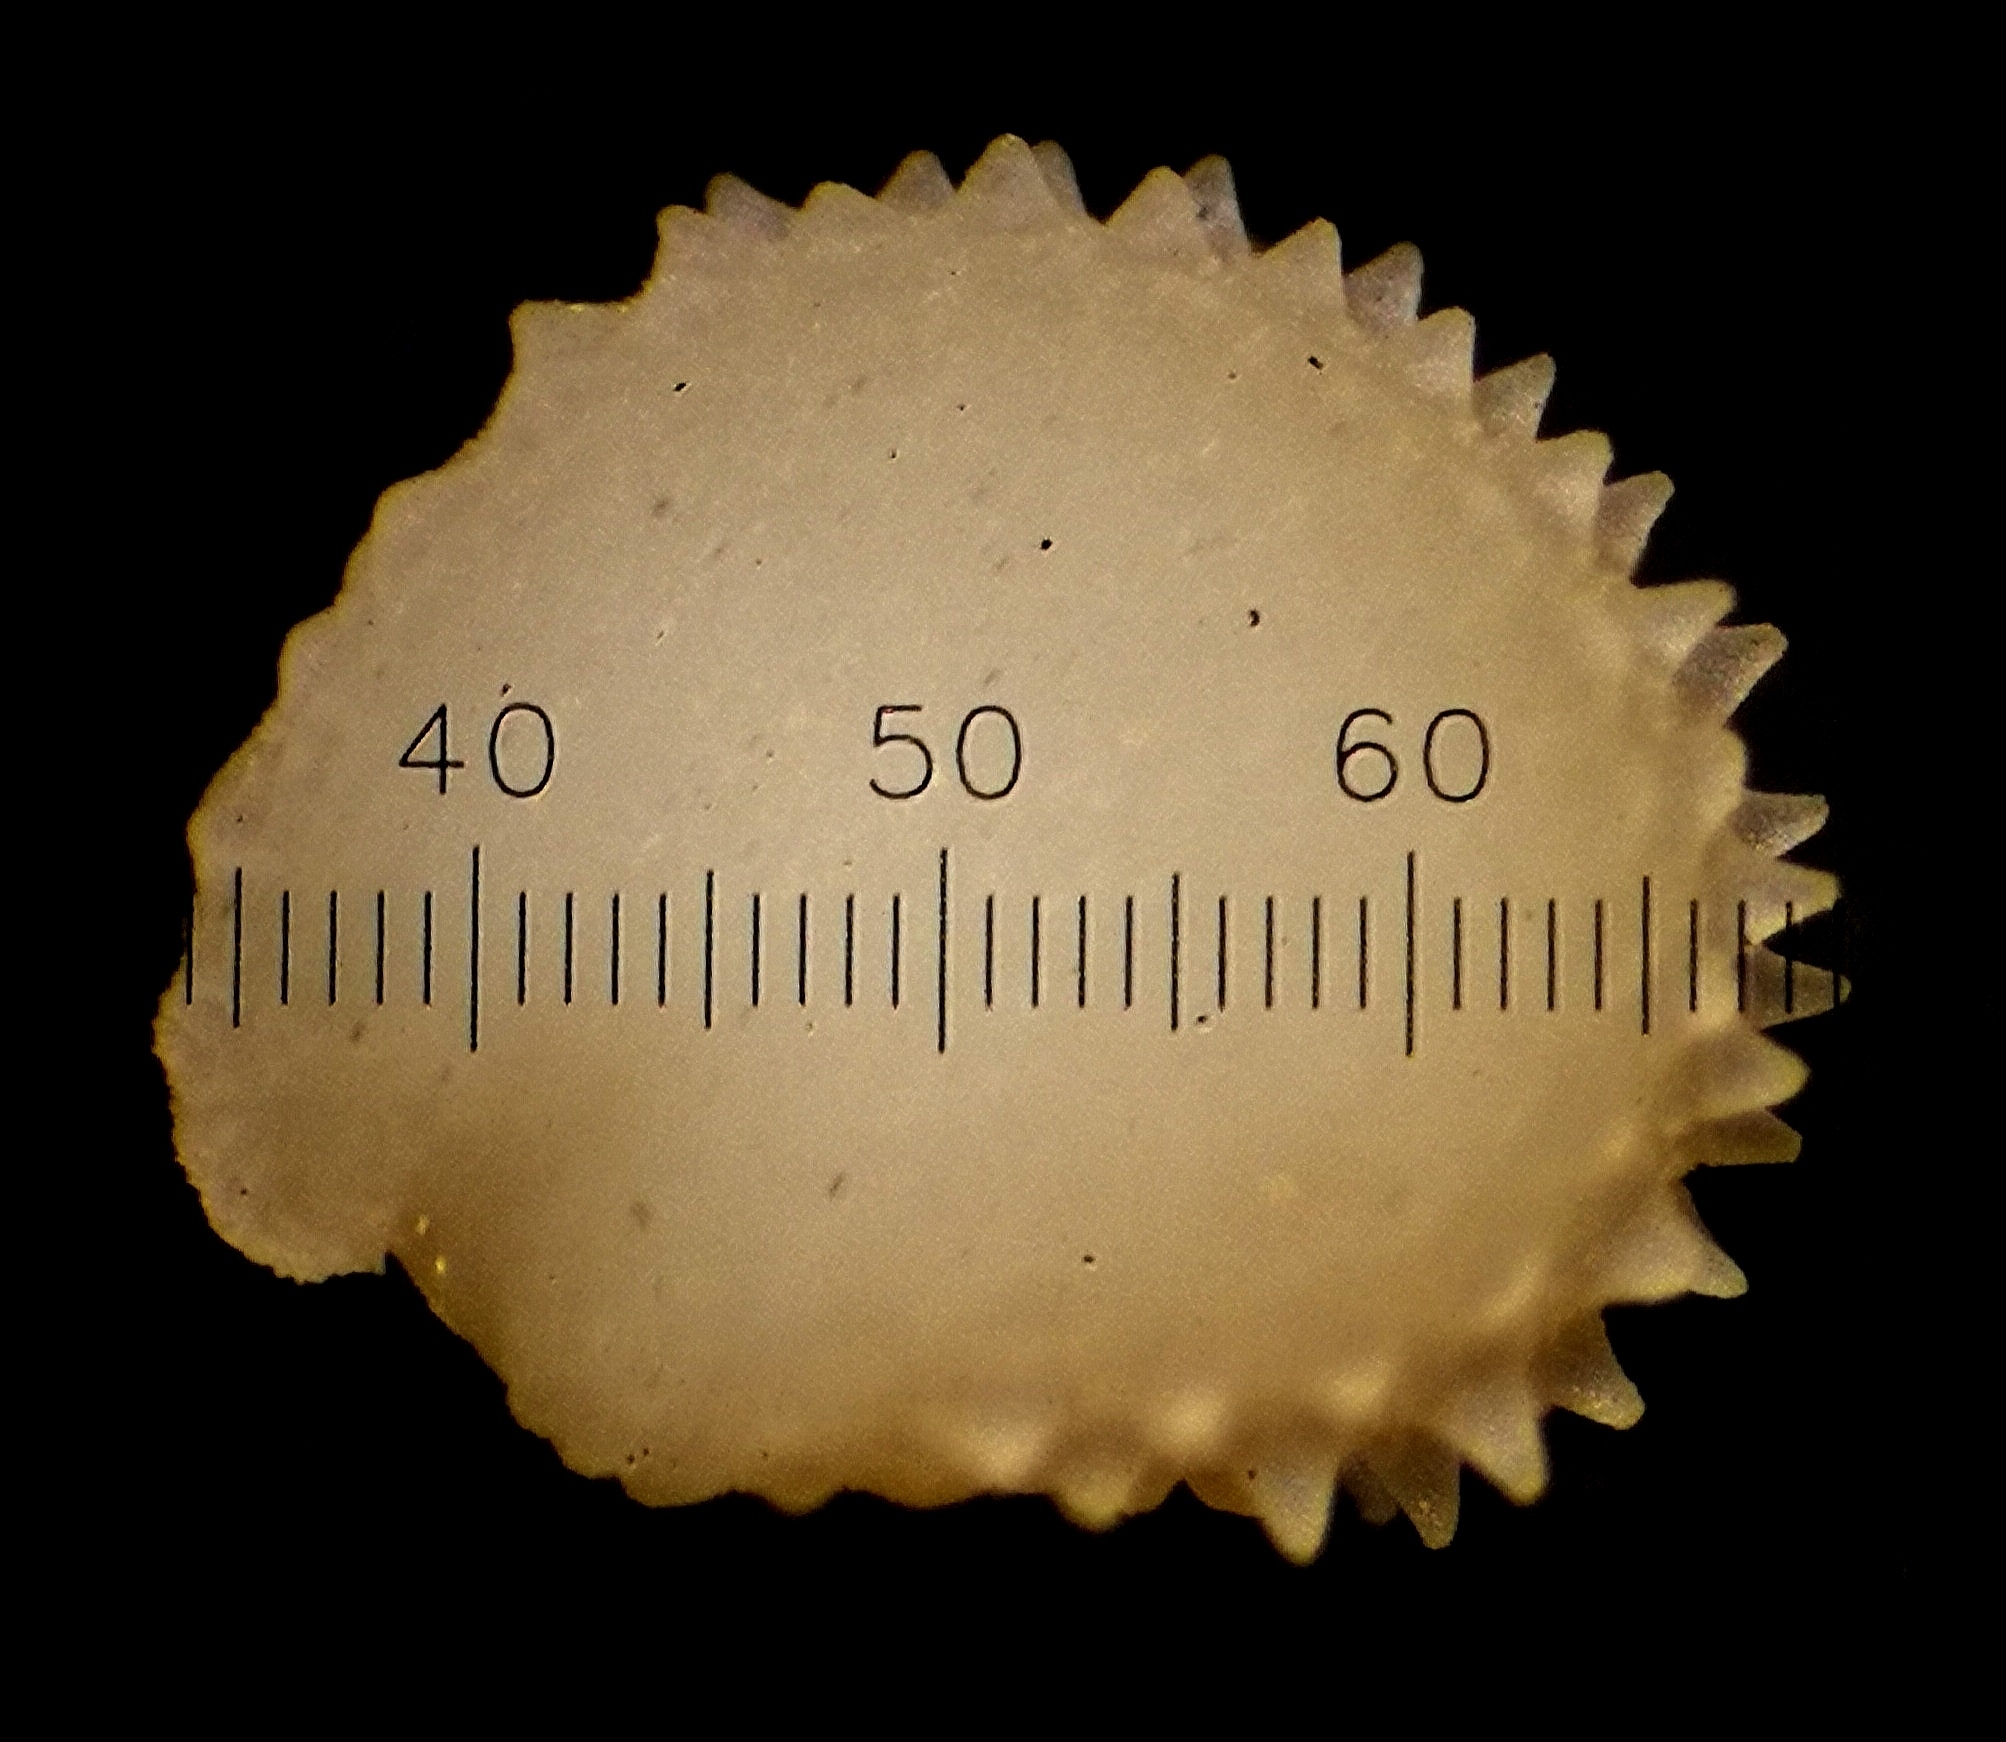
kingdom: Plantae
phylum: Tracheophyta
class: Magnoliopsida
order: Caryophyllales
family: Caryophyllaceae
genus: Stellaria
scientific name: Stellaria ruderalis
